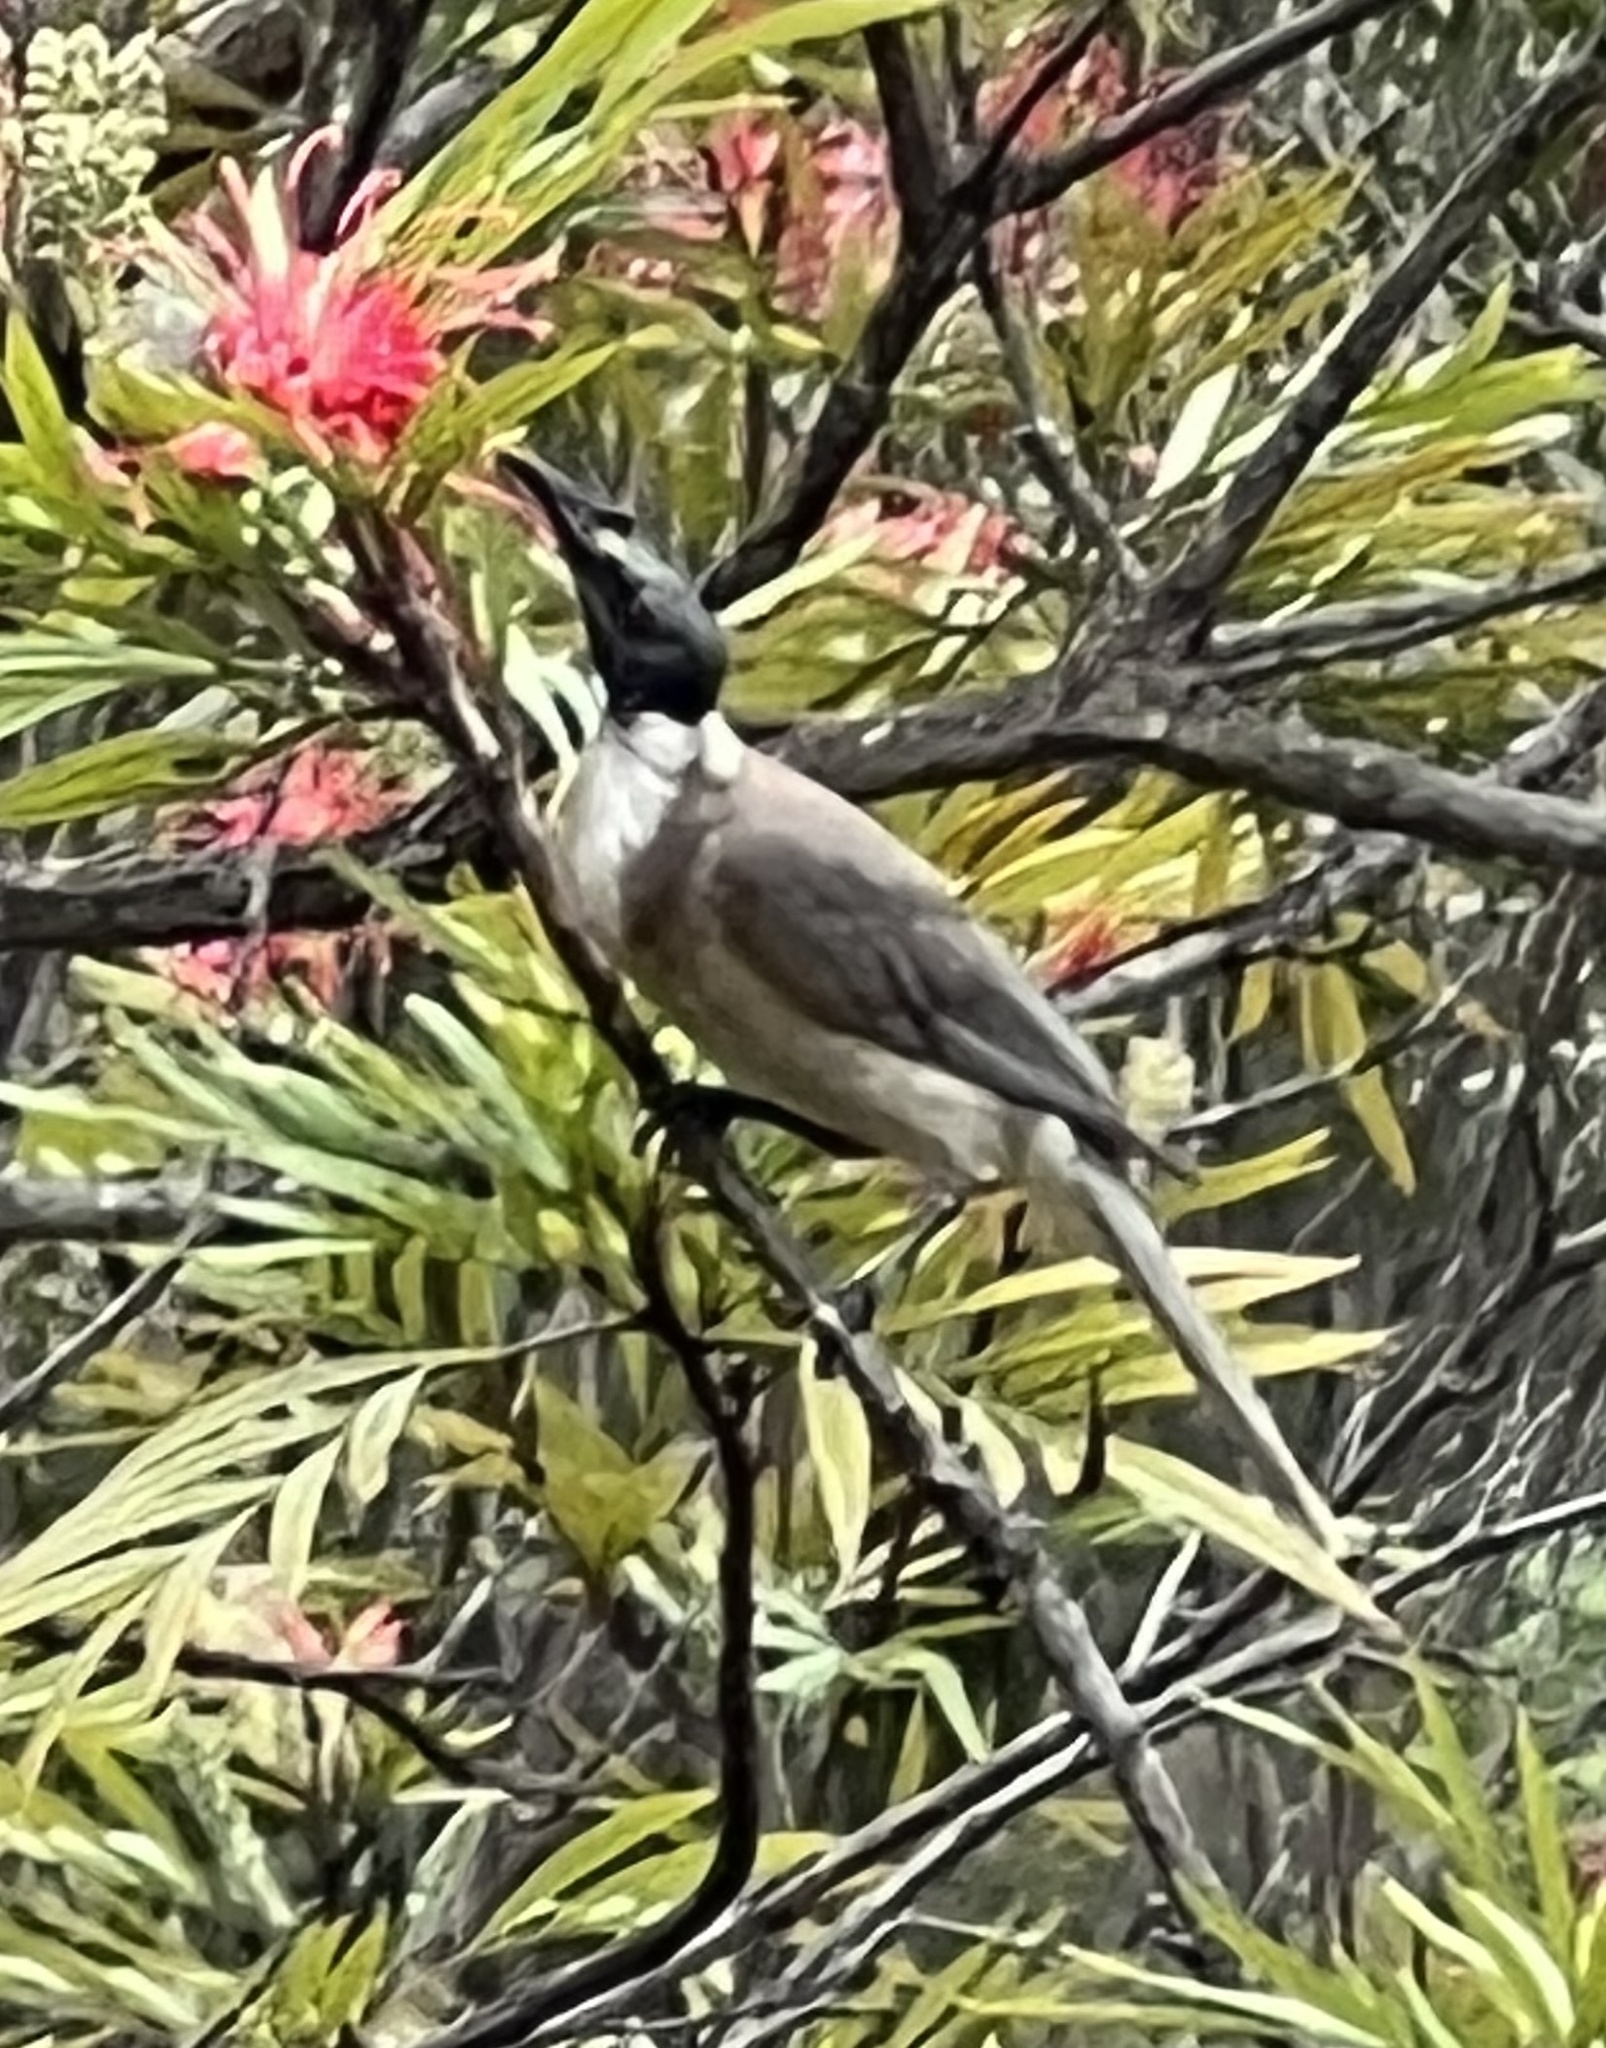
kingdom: Animalia
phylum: Chordata
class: Aves
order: Passeriformes
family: Meliphagidae
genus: Philemon
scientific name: Philemon corniculatus
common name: Noisy friarbird
